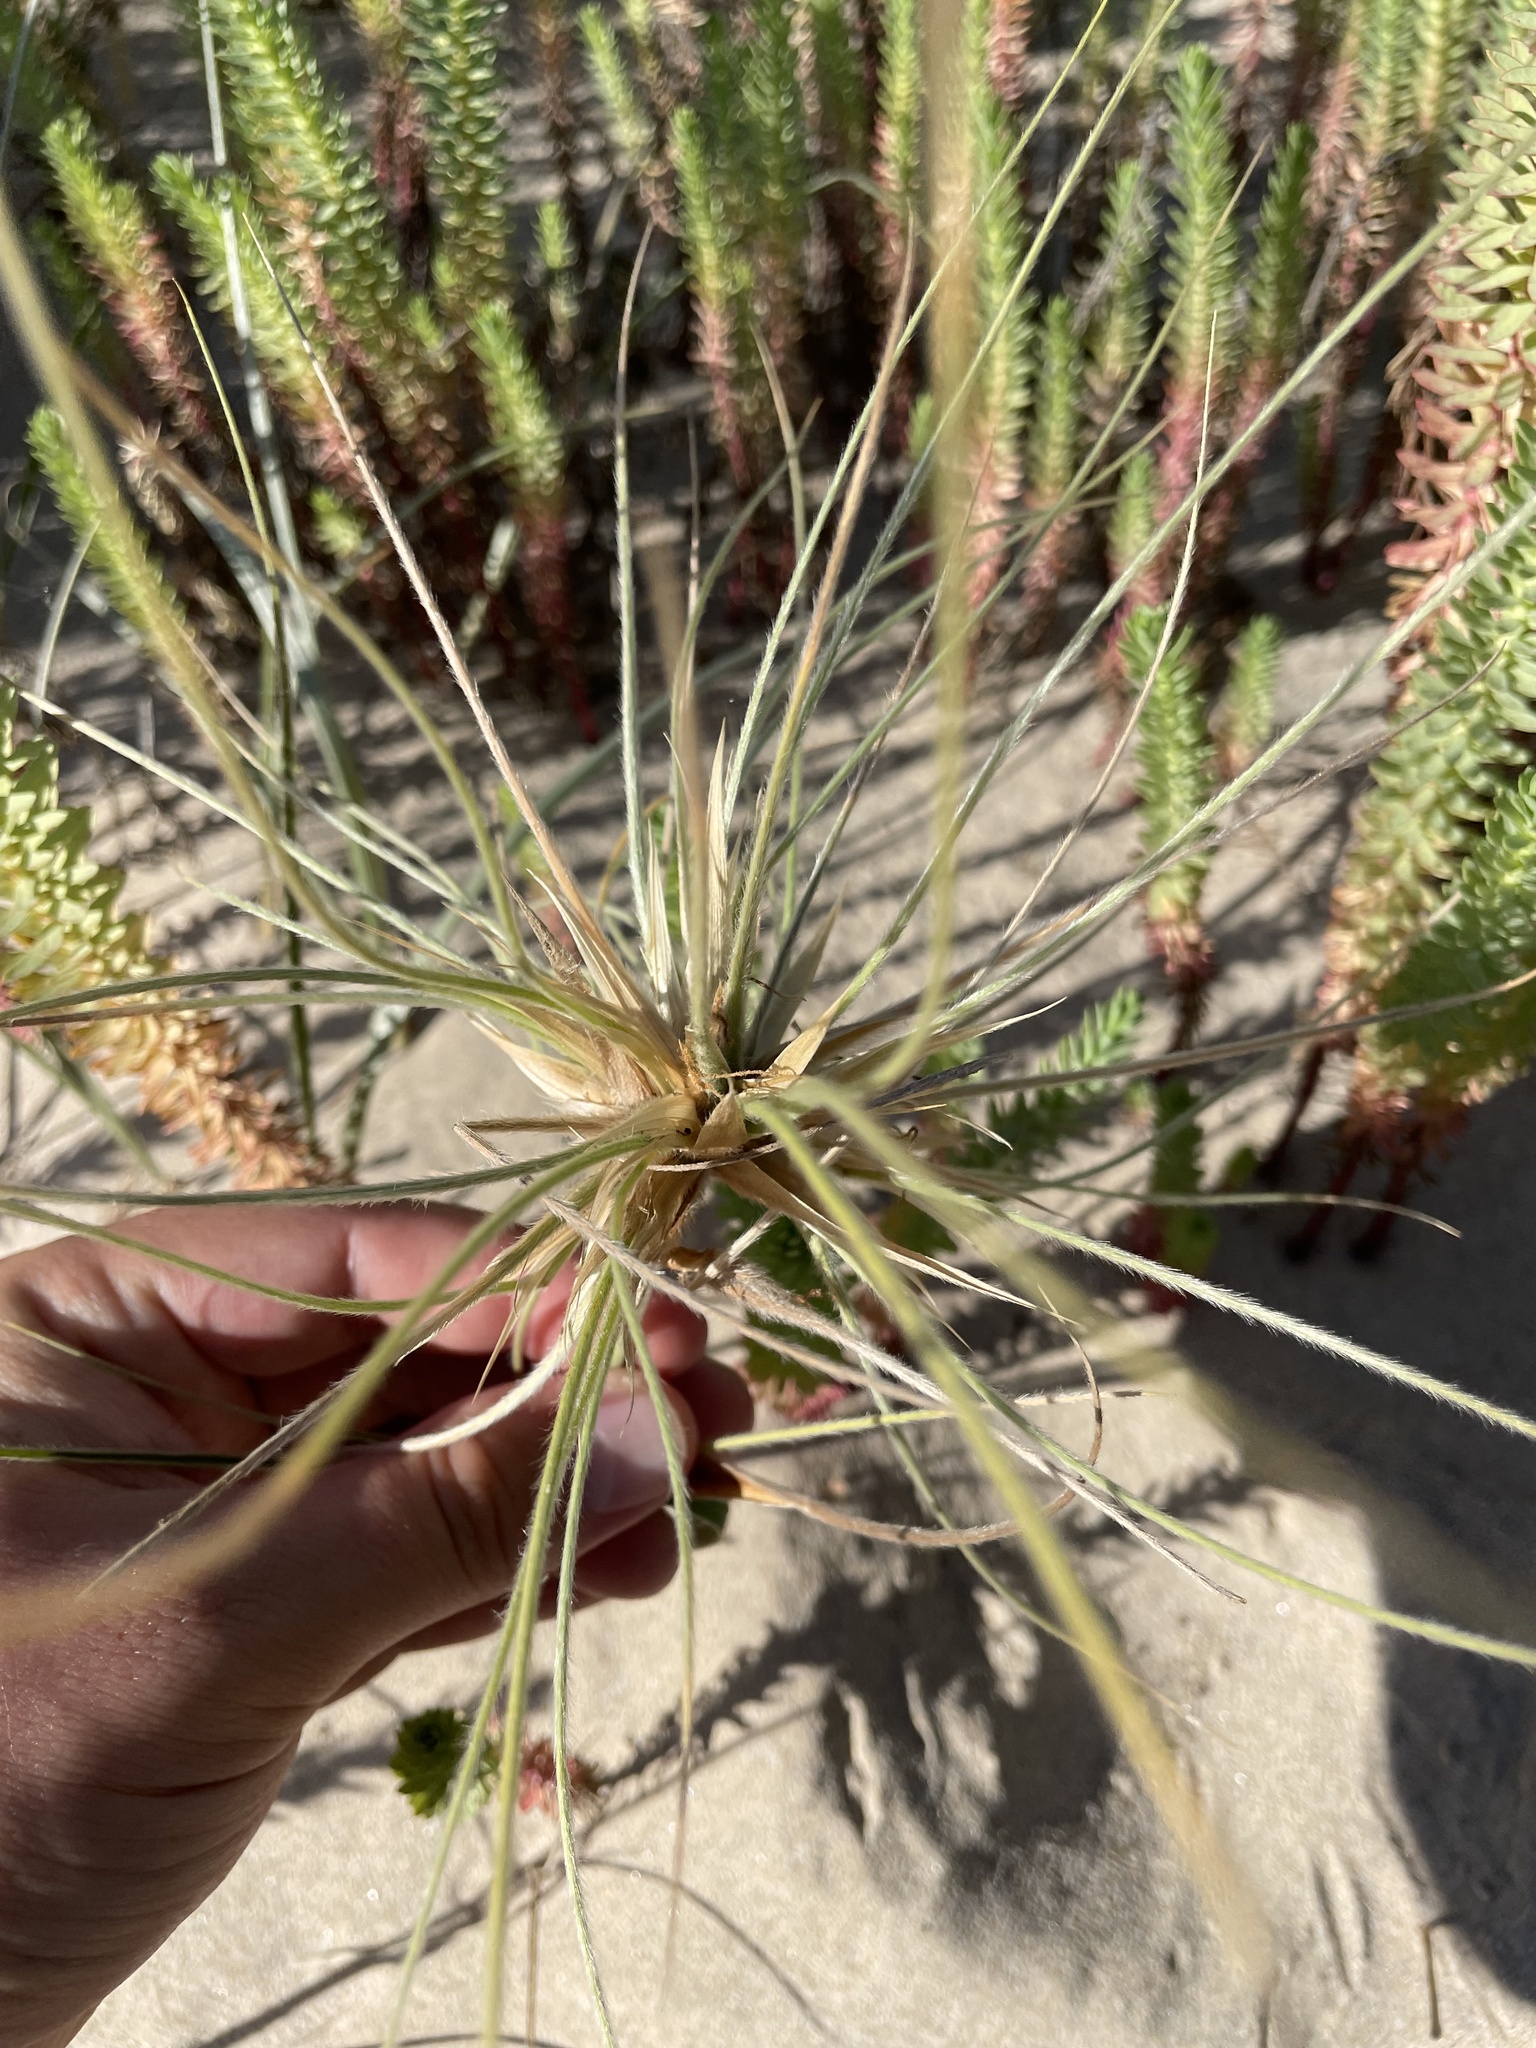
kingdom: Plantae
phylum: Tracheophyta
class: Liliopsida
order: Poales
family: Poaceae
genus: Spinifex
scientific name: Spinifex sericeus
